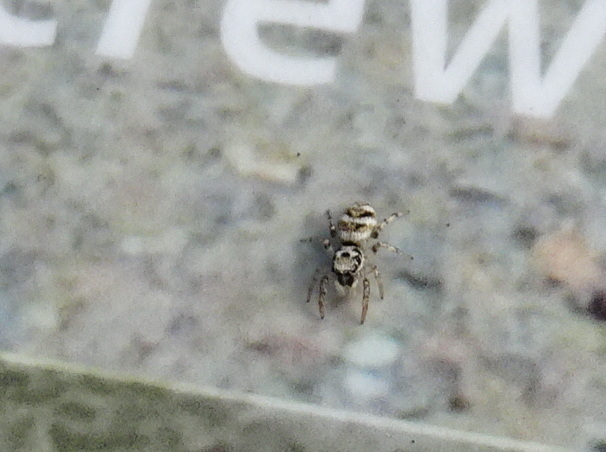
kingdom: Animalia
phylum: Arthropoda
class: Arachnida
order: Araneae
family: Salticidae
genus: Salticus
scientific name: Salticus scenicus
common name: Zebra jumper
